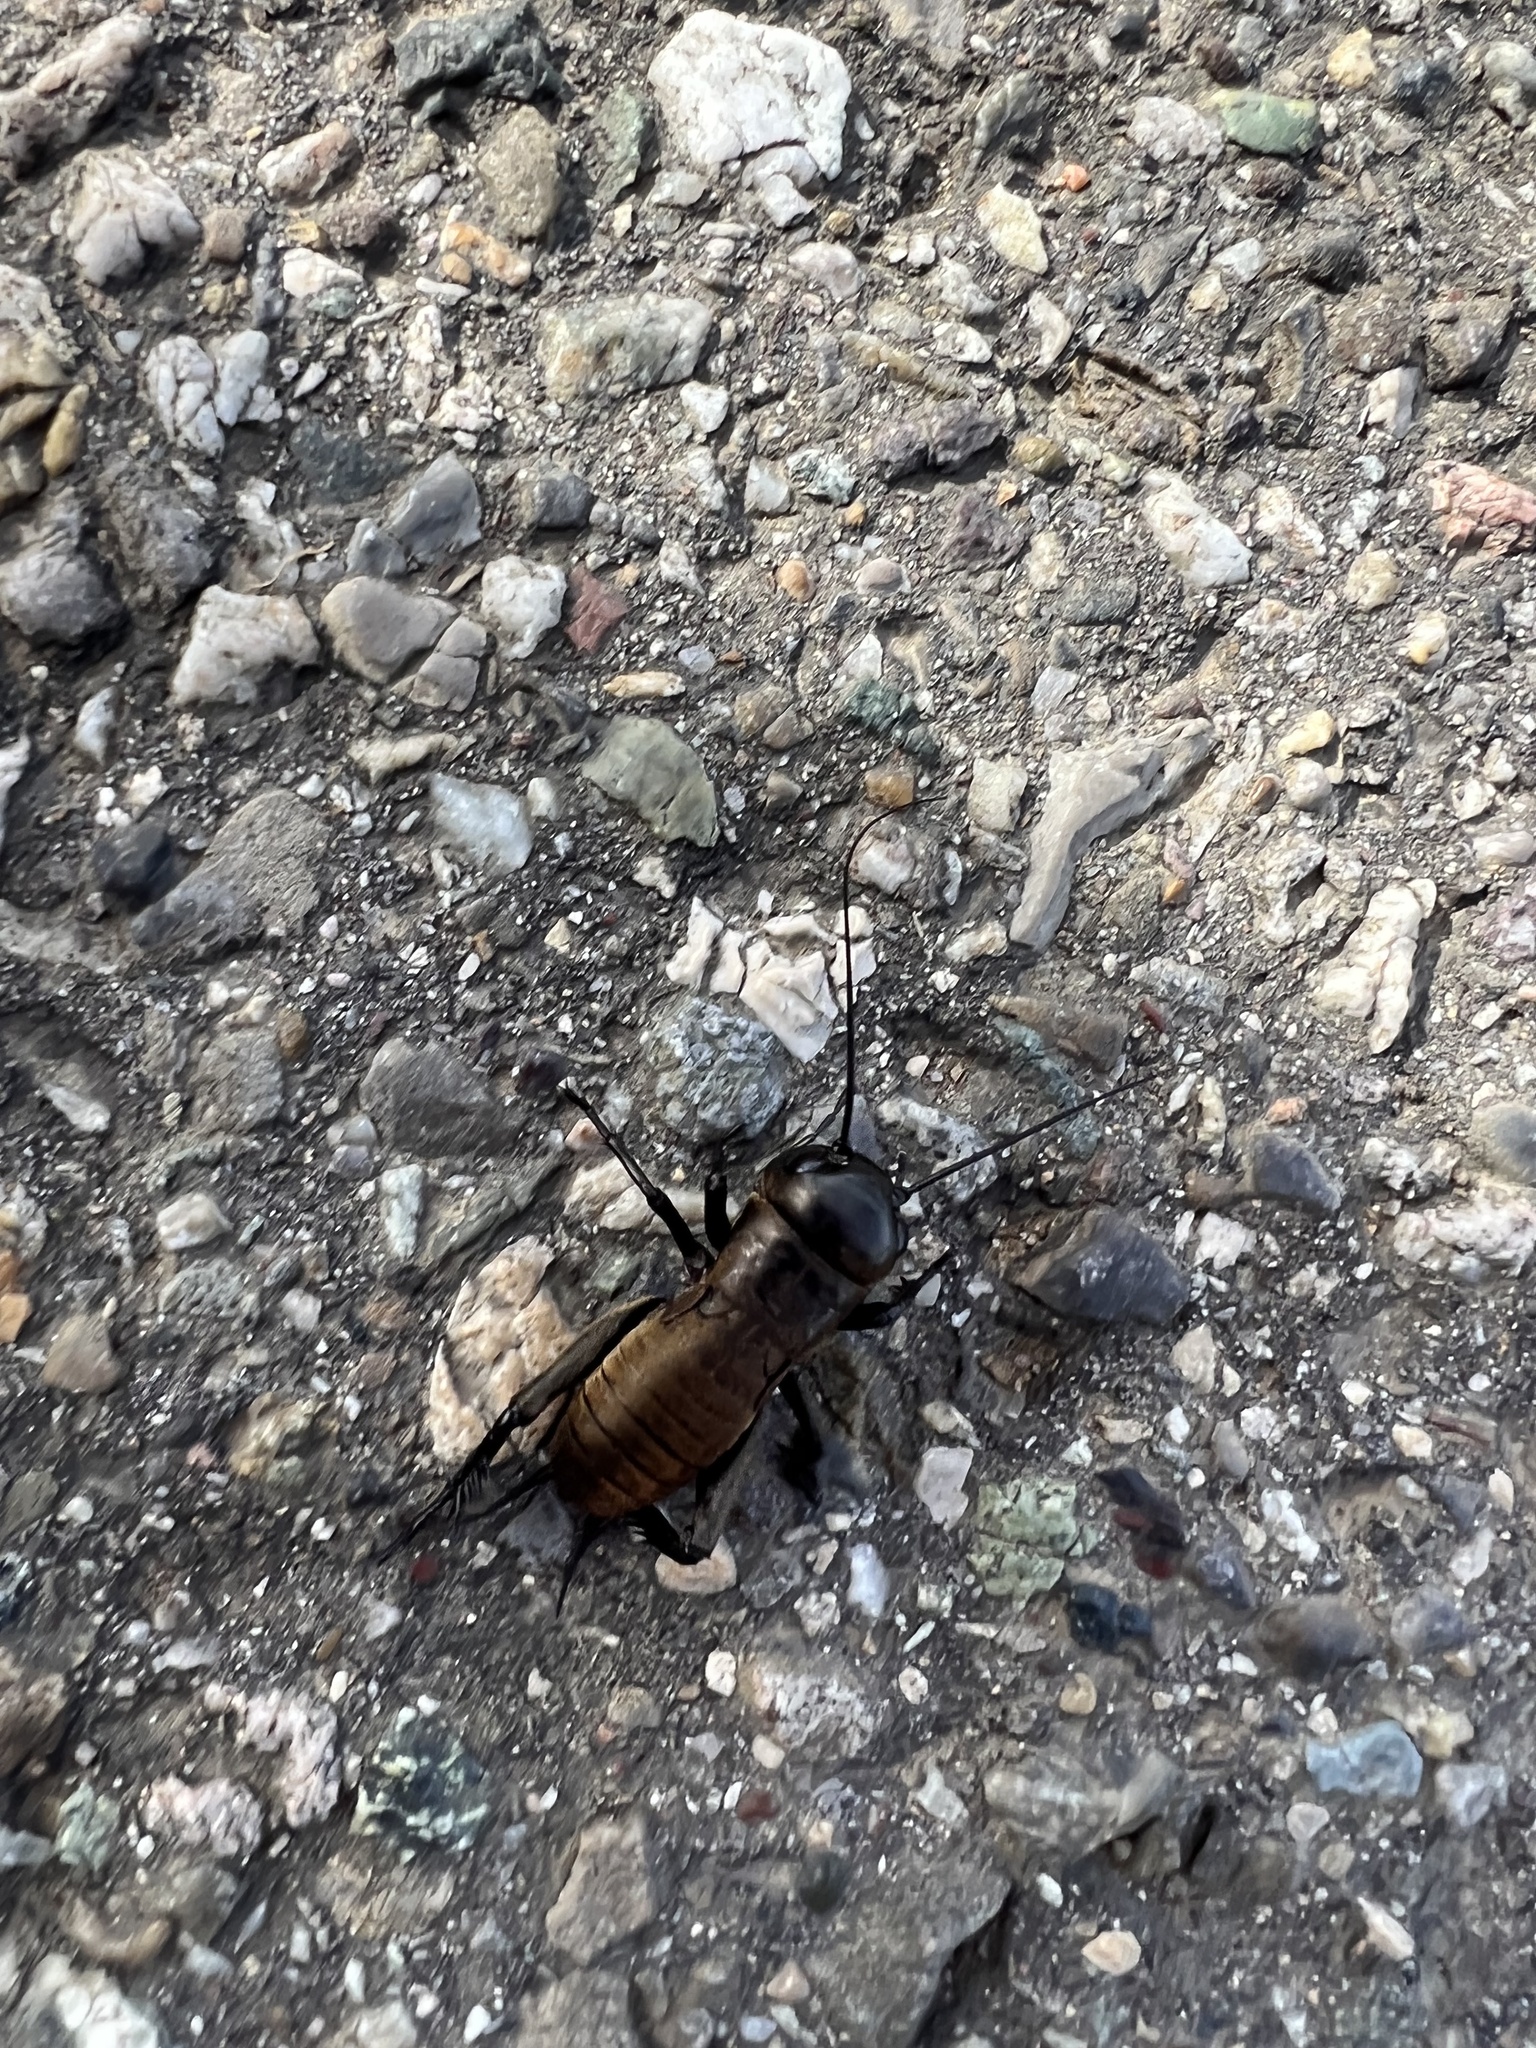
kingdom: Animalia
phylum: Arthropoda
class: Insecta
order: Orthoptera
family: Gryllidae
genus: Gryllus
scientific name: Gryllus campestris
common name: Field cricket
